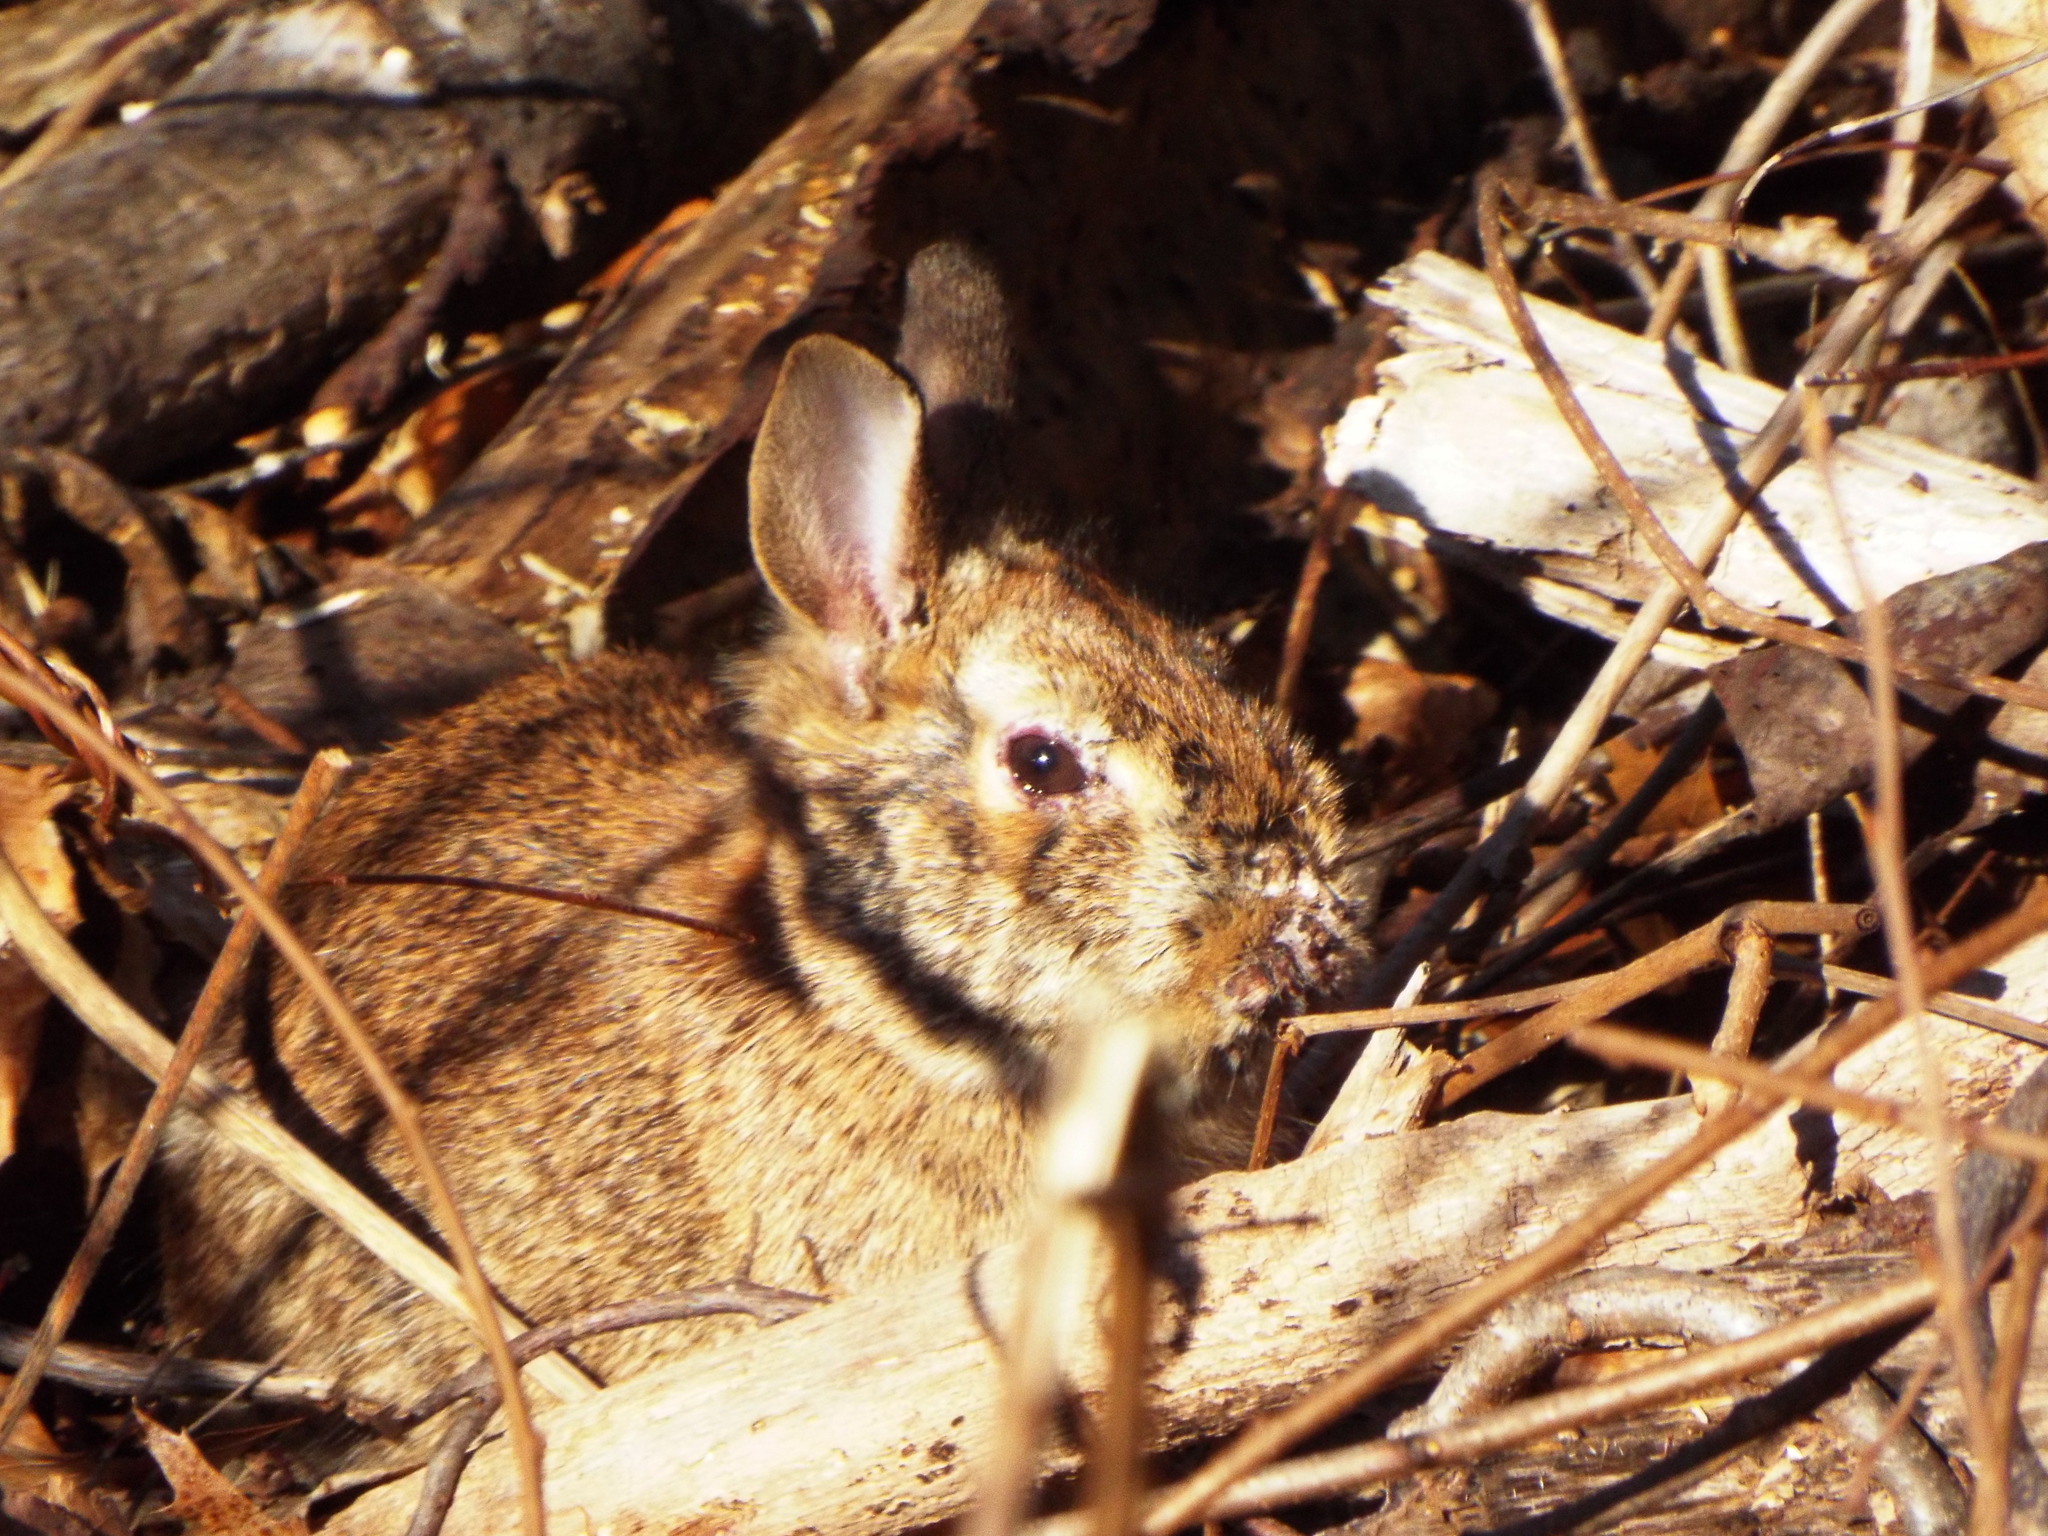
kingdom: Animalia
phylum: Chordata
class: Mammalia
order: Lagomorpha
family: Leporidae
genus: Sylvilagus
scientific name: Sylvilagus floridanus
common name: Eastern cottontail
